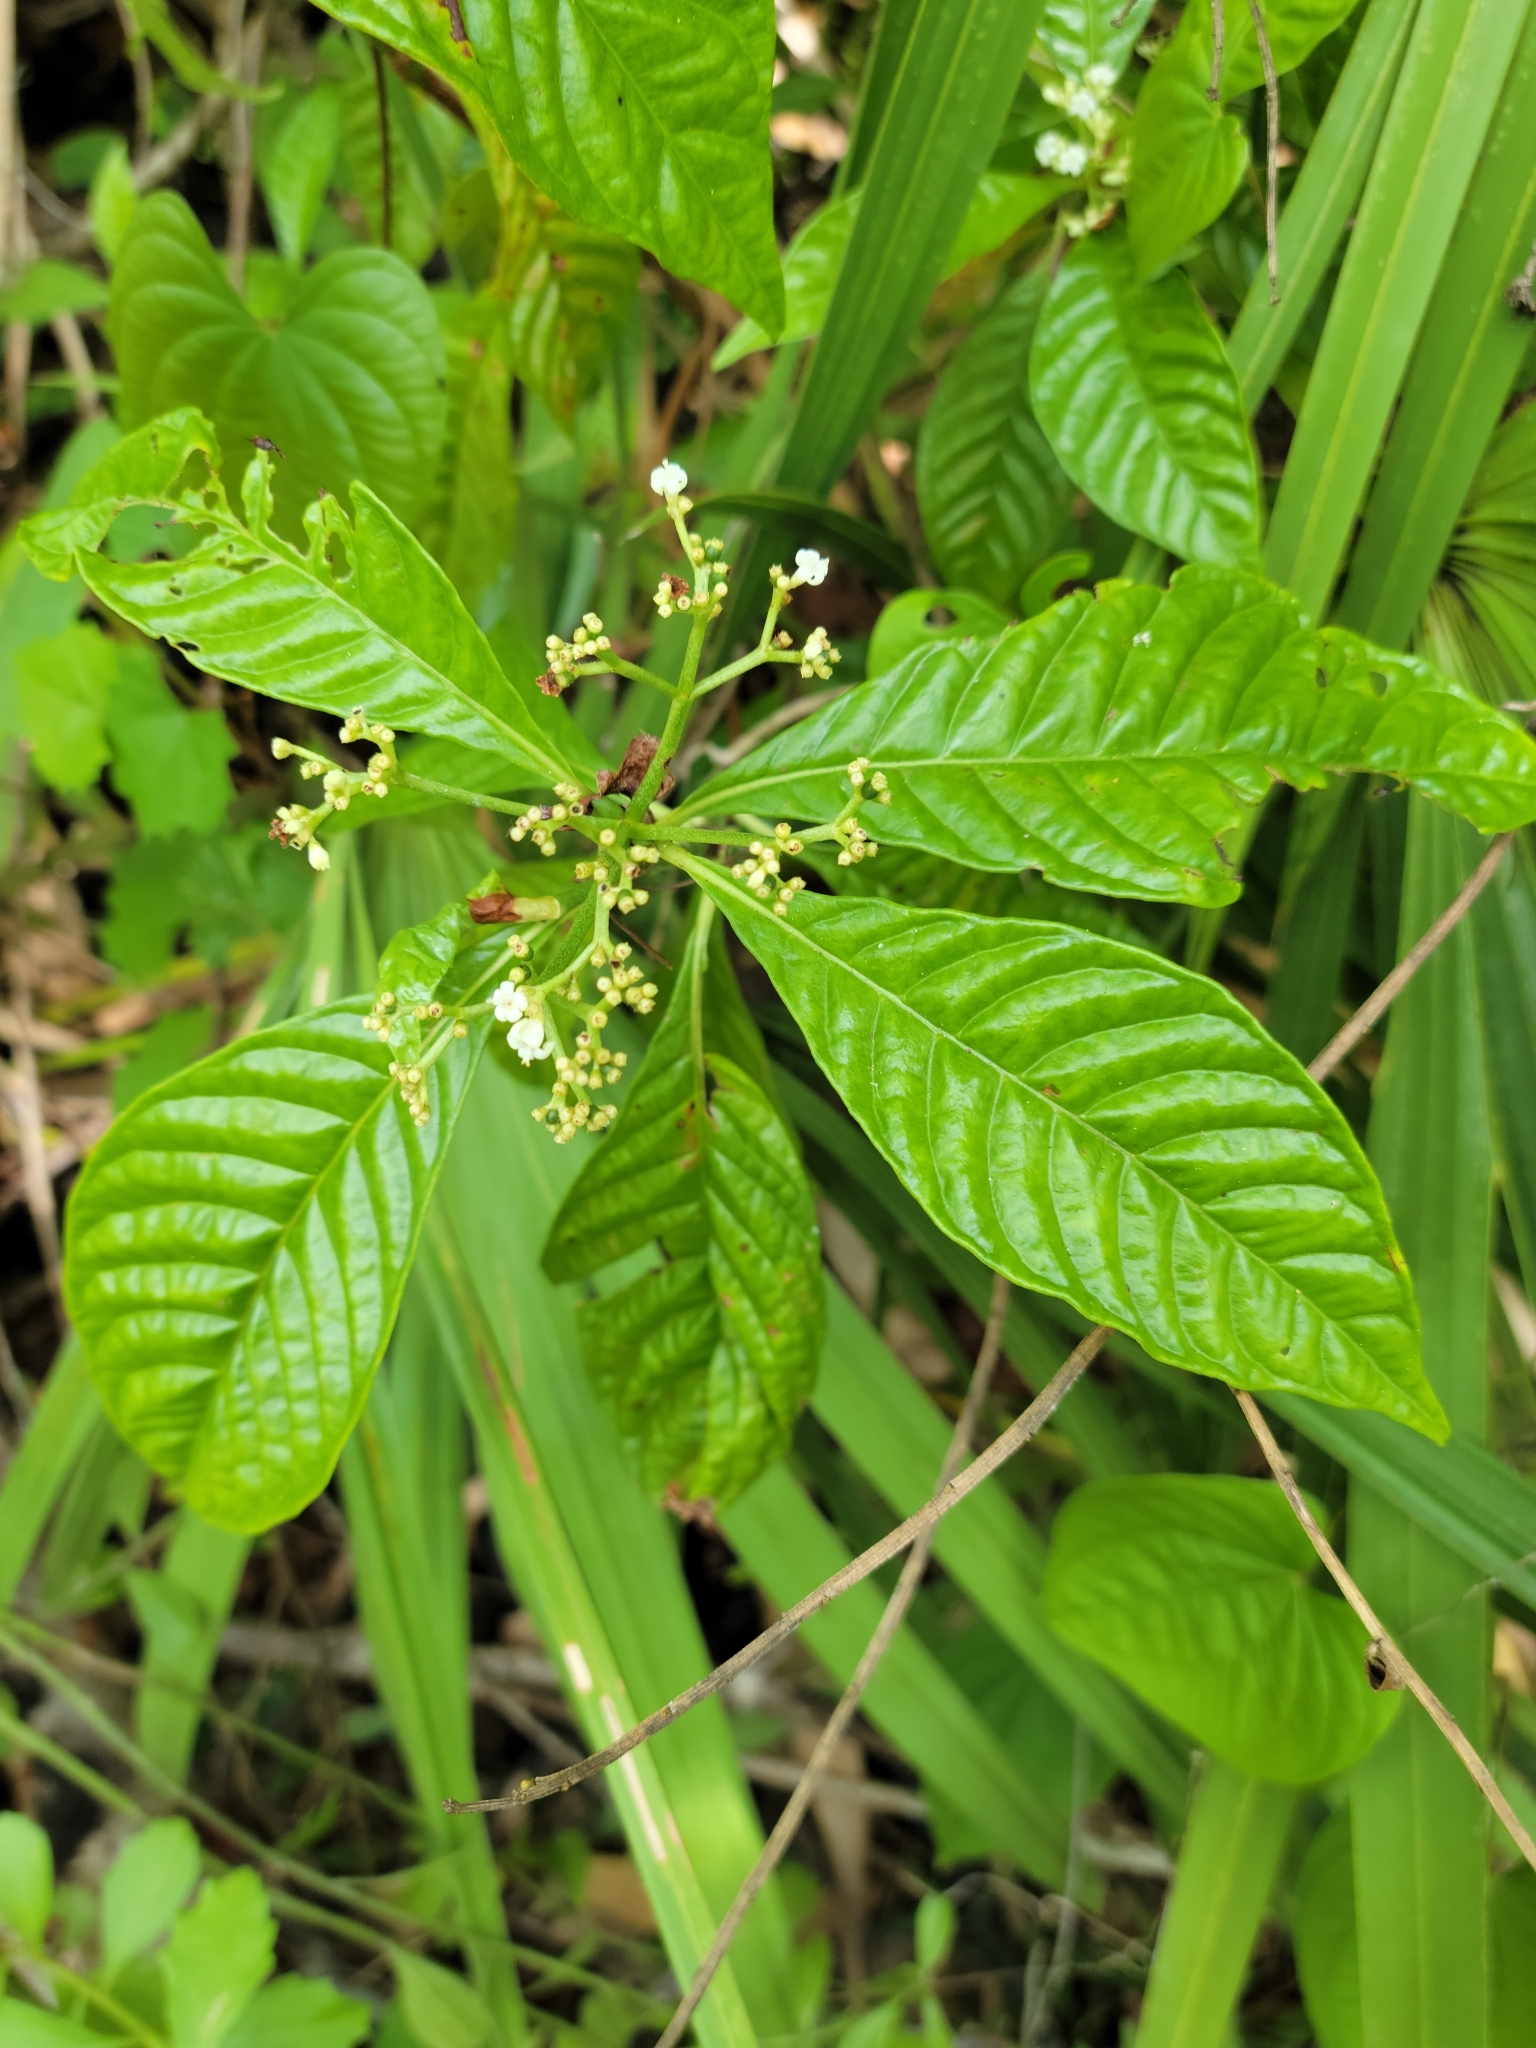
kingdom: Plantae
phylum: Tracheophyta
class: Magnoliopsida
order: Gentianales
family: Rubiaceae
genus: Psychotria
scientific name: Psychotria nervosa
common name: Bastard cankerberry
